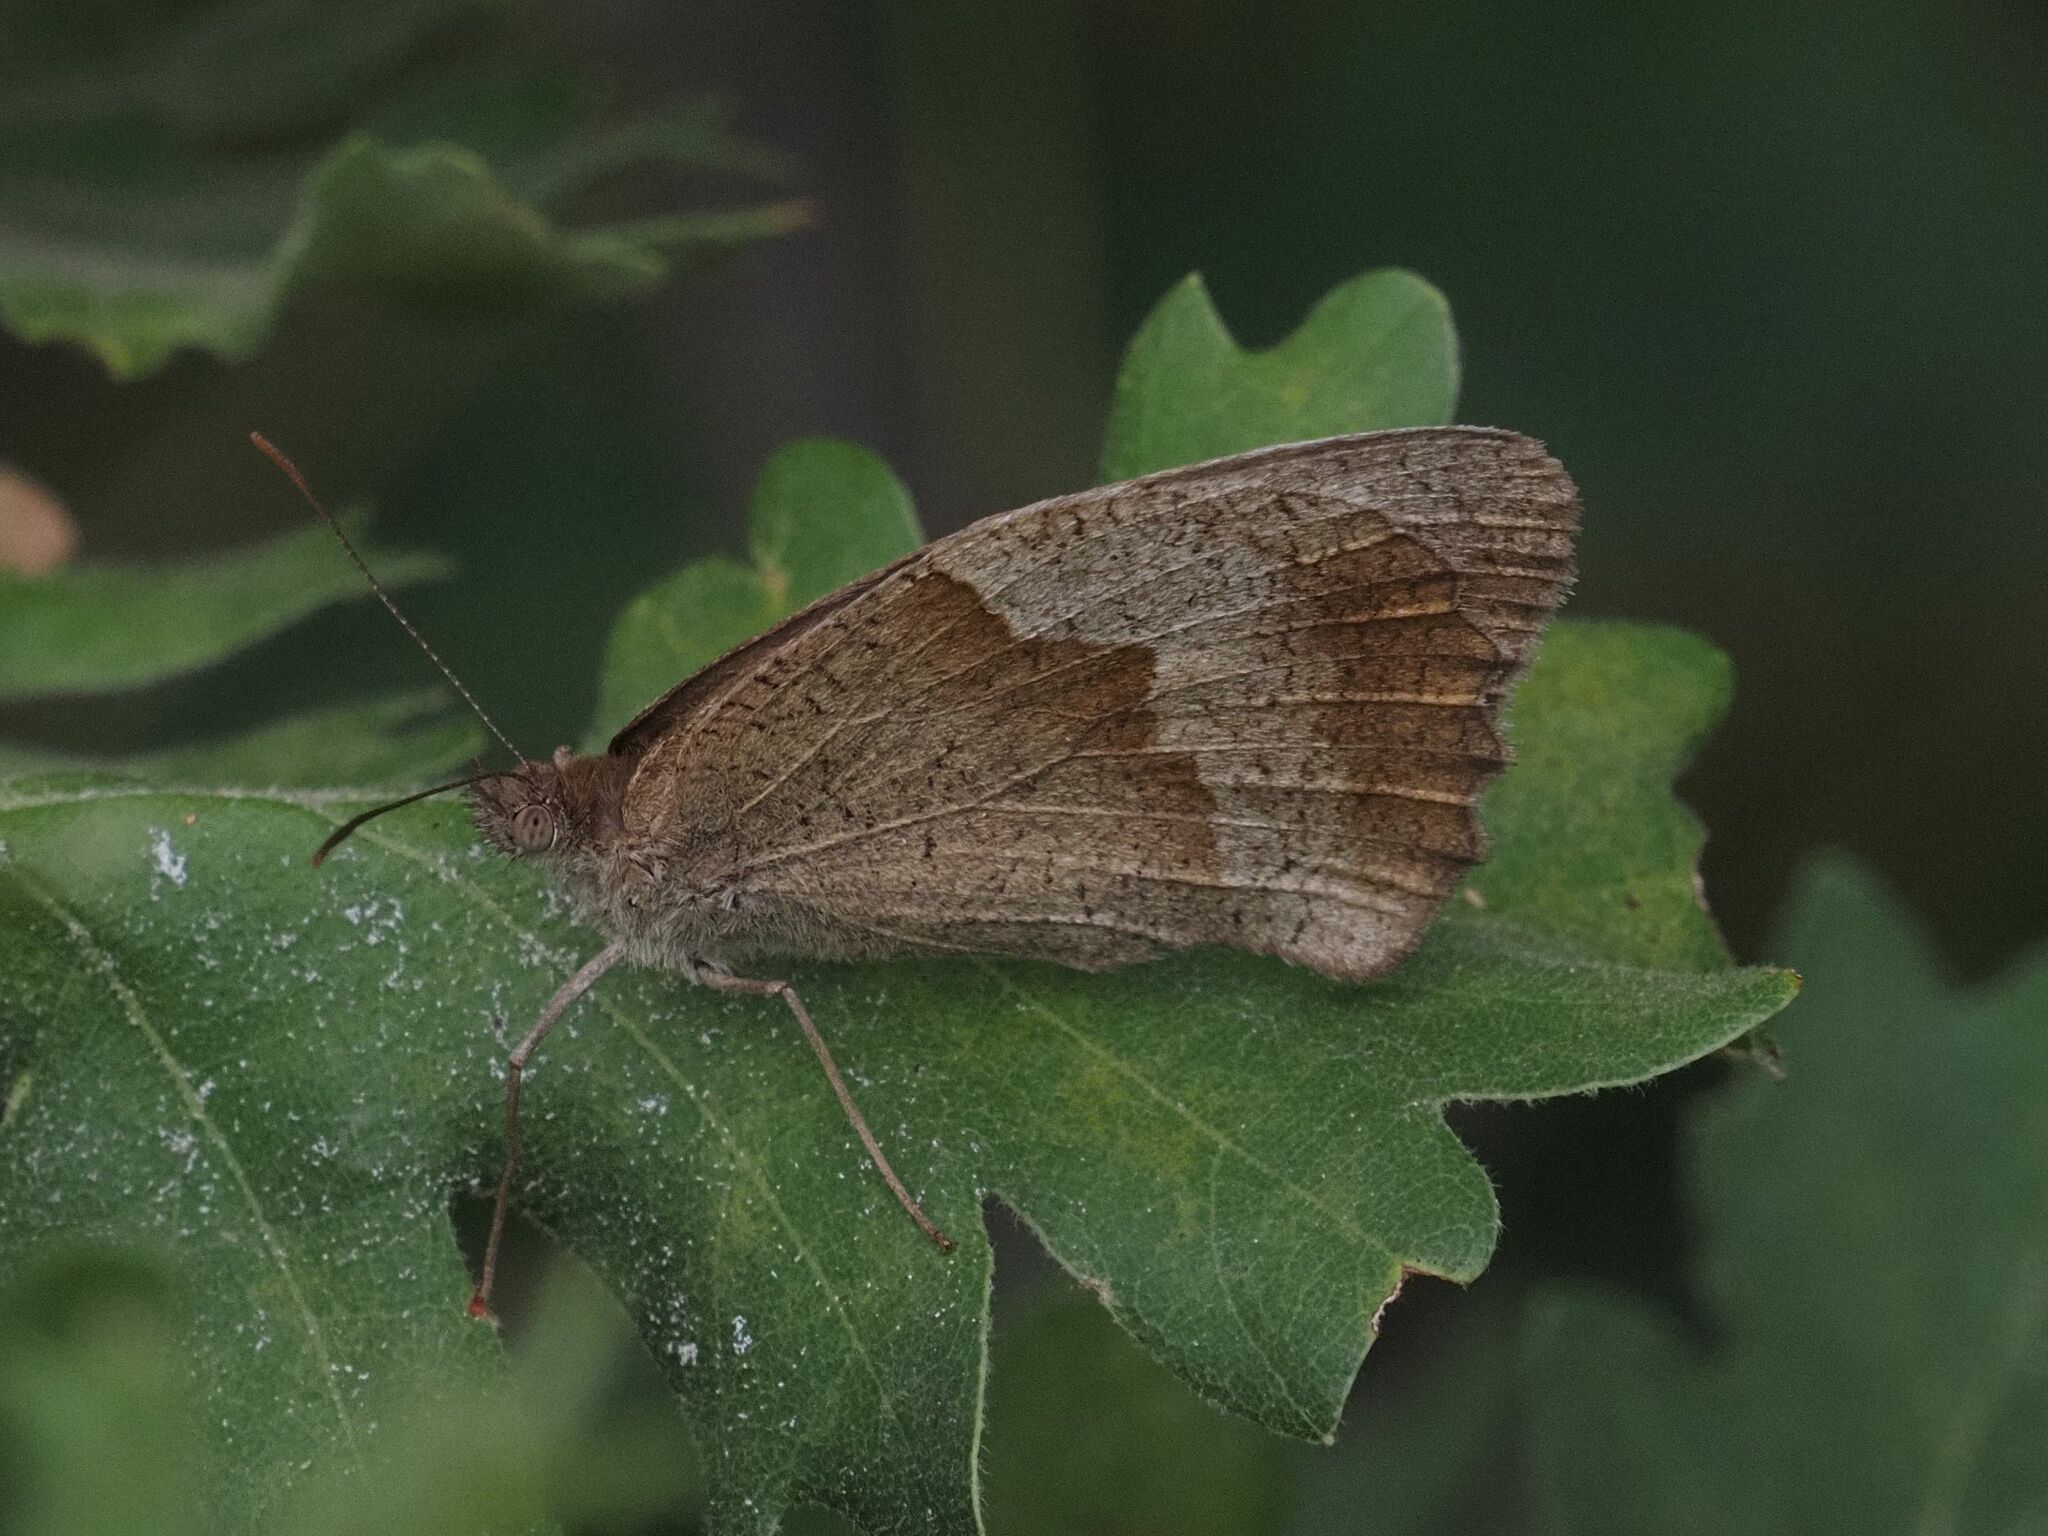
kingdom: Animalia
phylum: Arthropoda
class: Insecta
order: Lepidoptera
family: Nymphalidae
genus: Maniola
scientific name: Maniola jurtina
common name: Meadow brown
